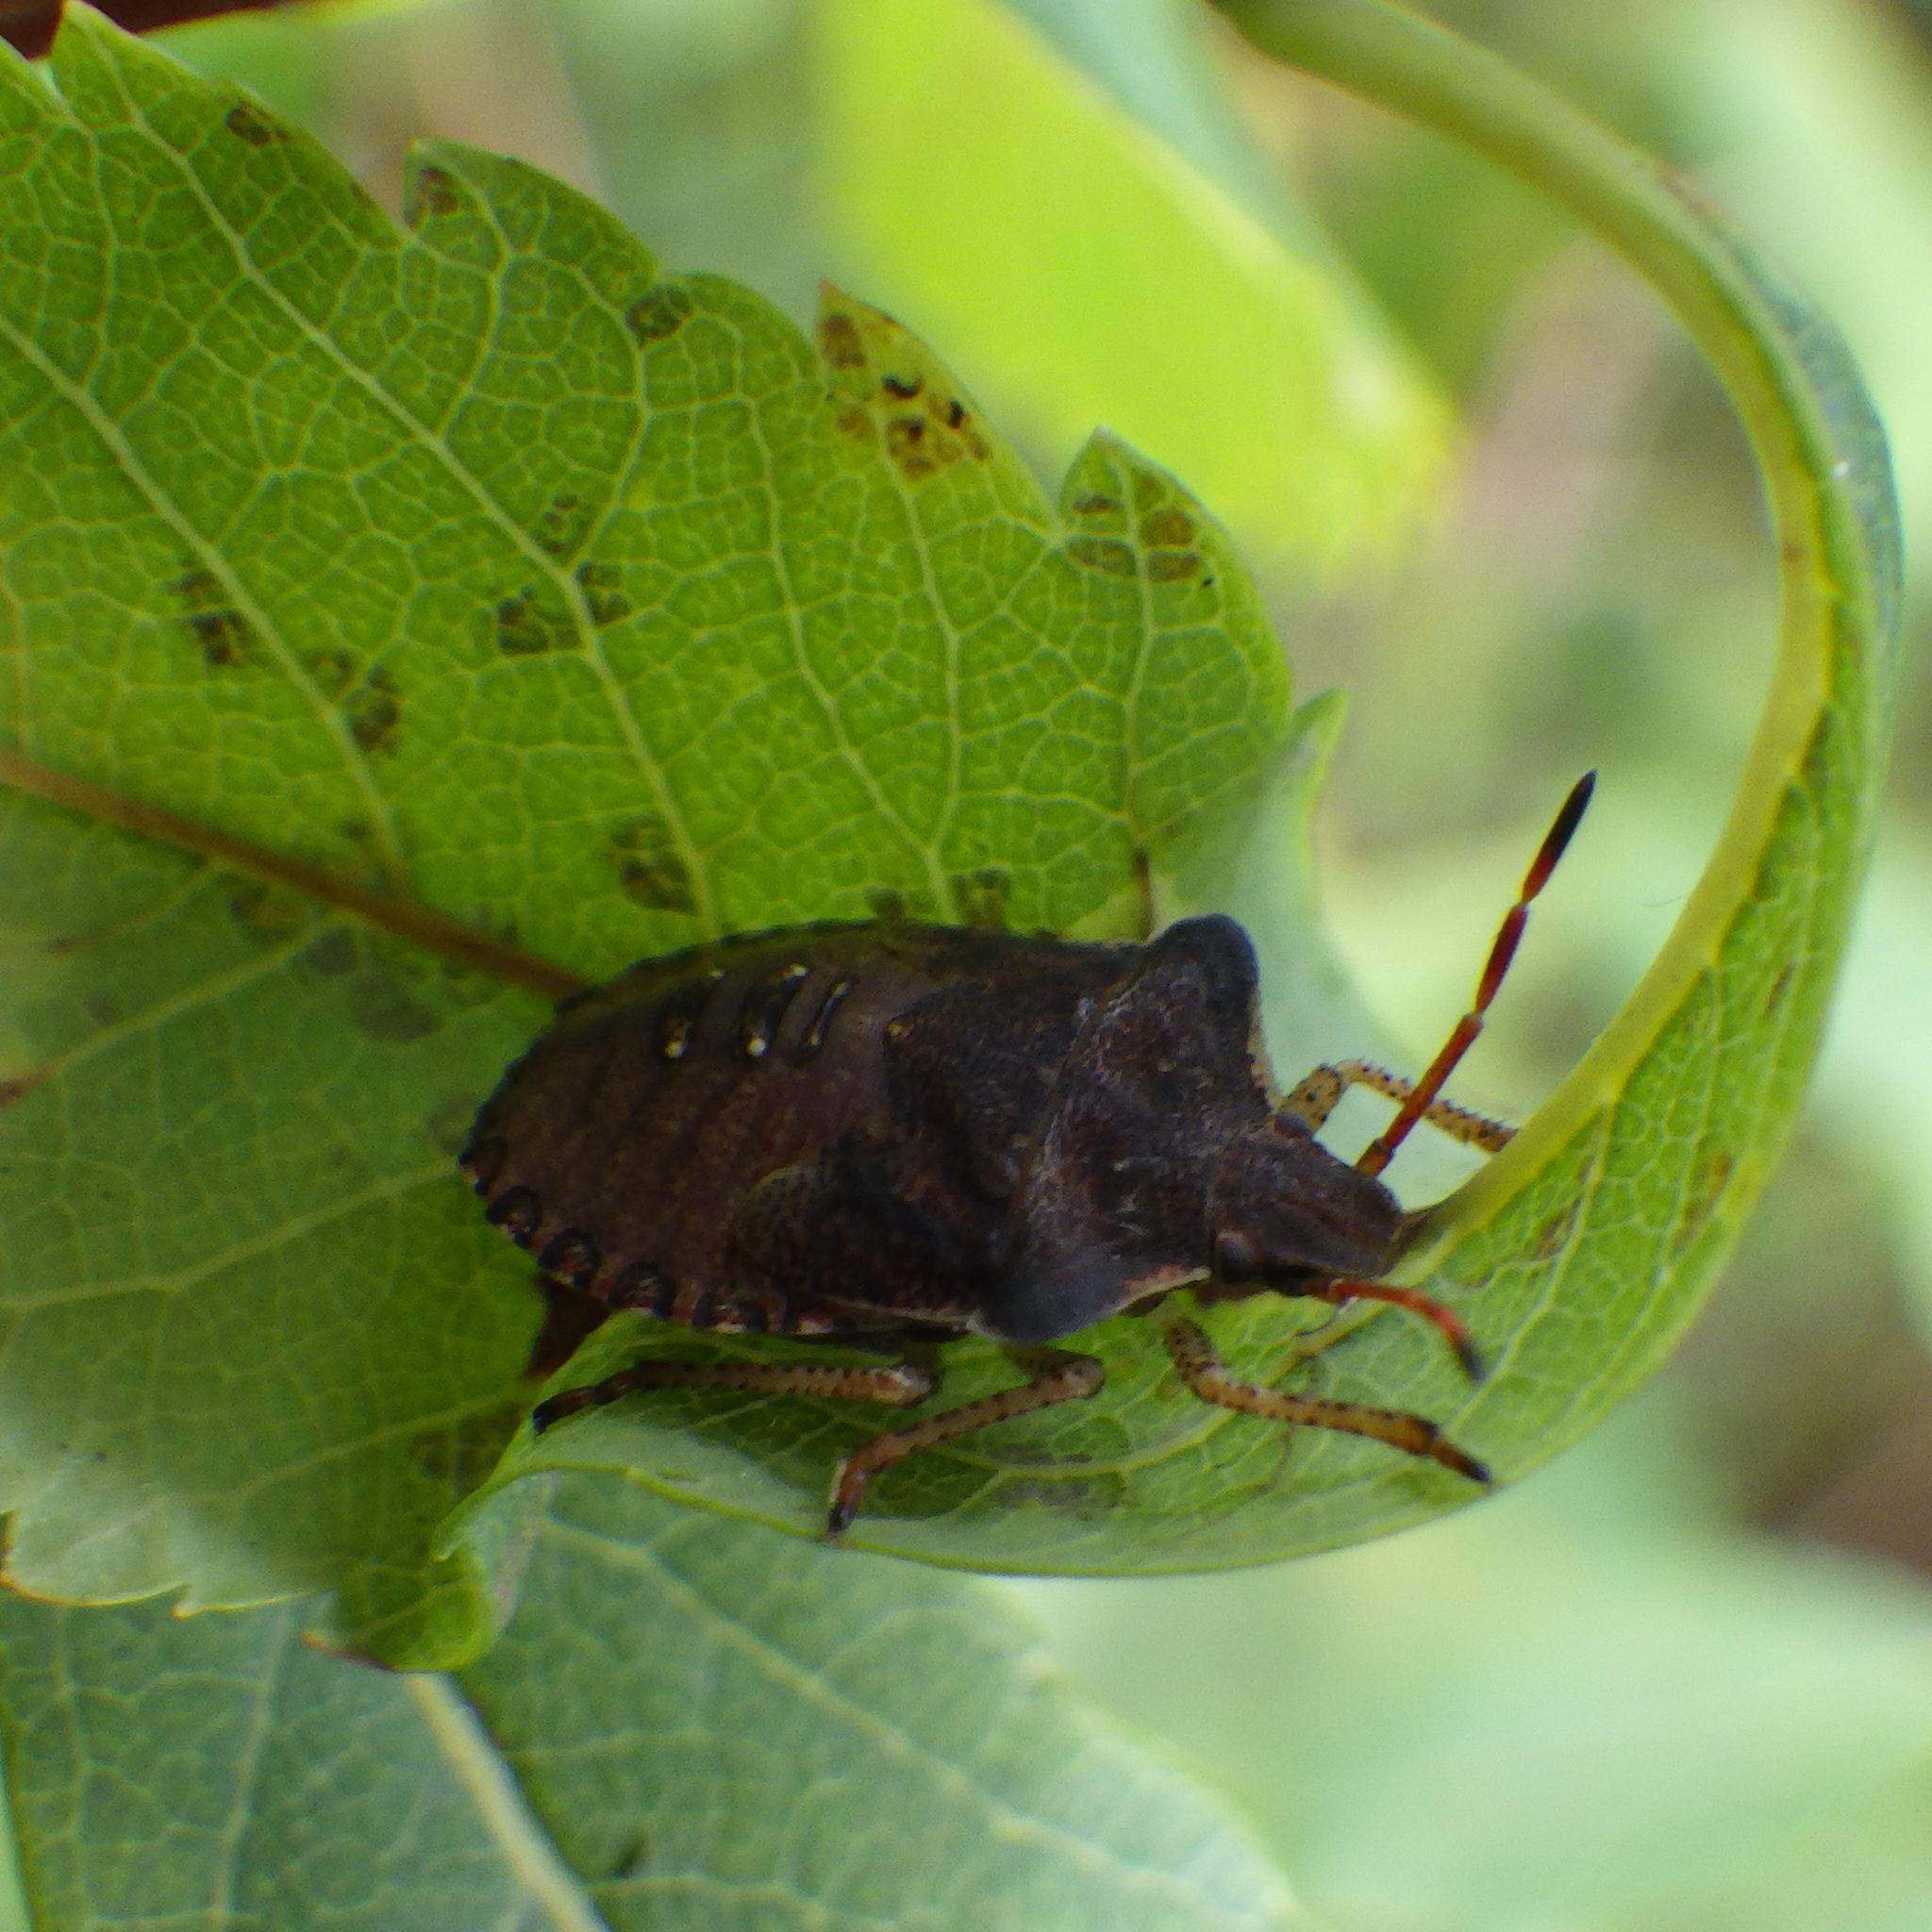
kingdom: Animalia
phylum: Arthropoda
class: Insecta
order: Hemiptera
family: Pentatomidae
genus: Euschistus
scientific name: Euschistus tristigmus
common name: Dusky stink bug
